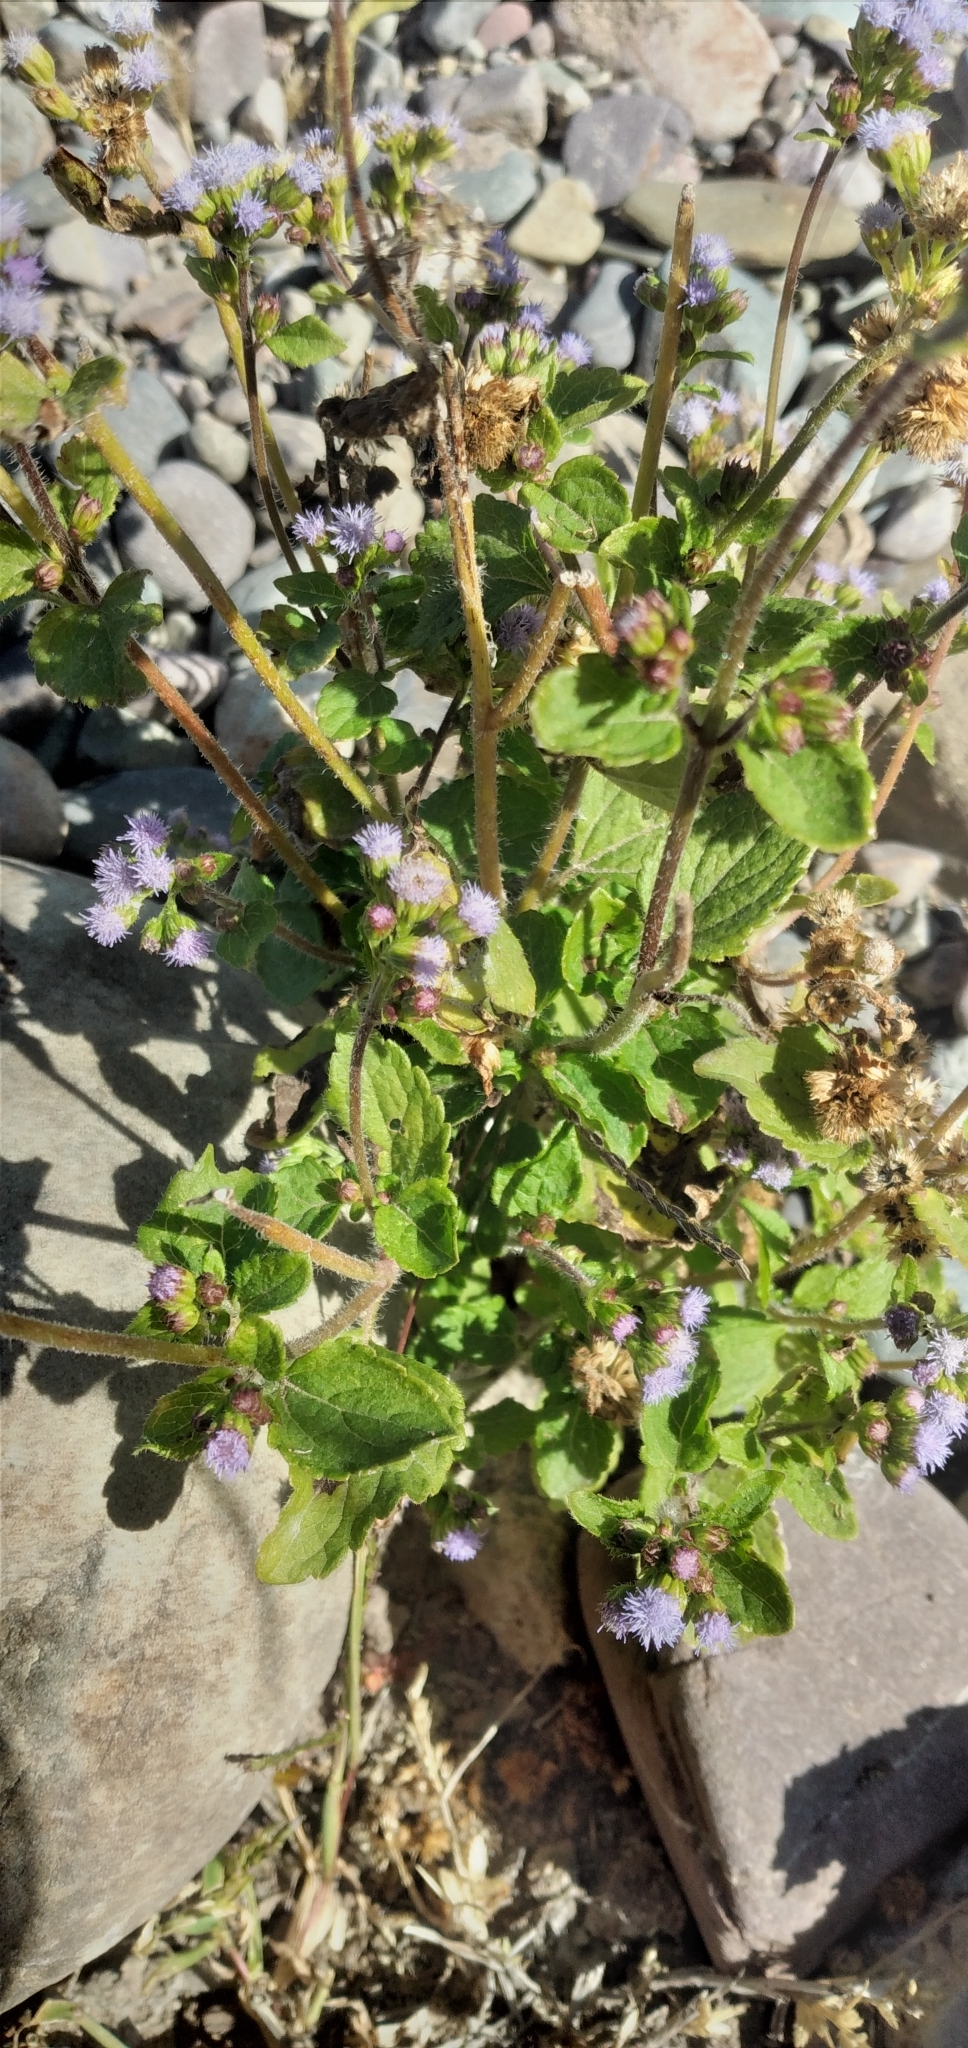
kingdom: Plantae
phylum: Tracheophyta
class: Magnoliopsida
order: Asterales
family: Asteraceae
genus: Ageratum
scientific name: Ageratum conyzoides
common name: Tropical whiteweed
